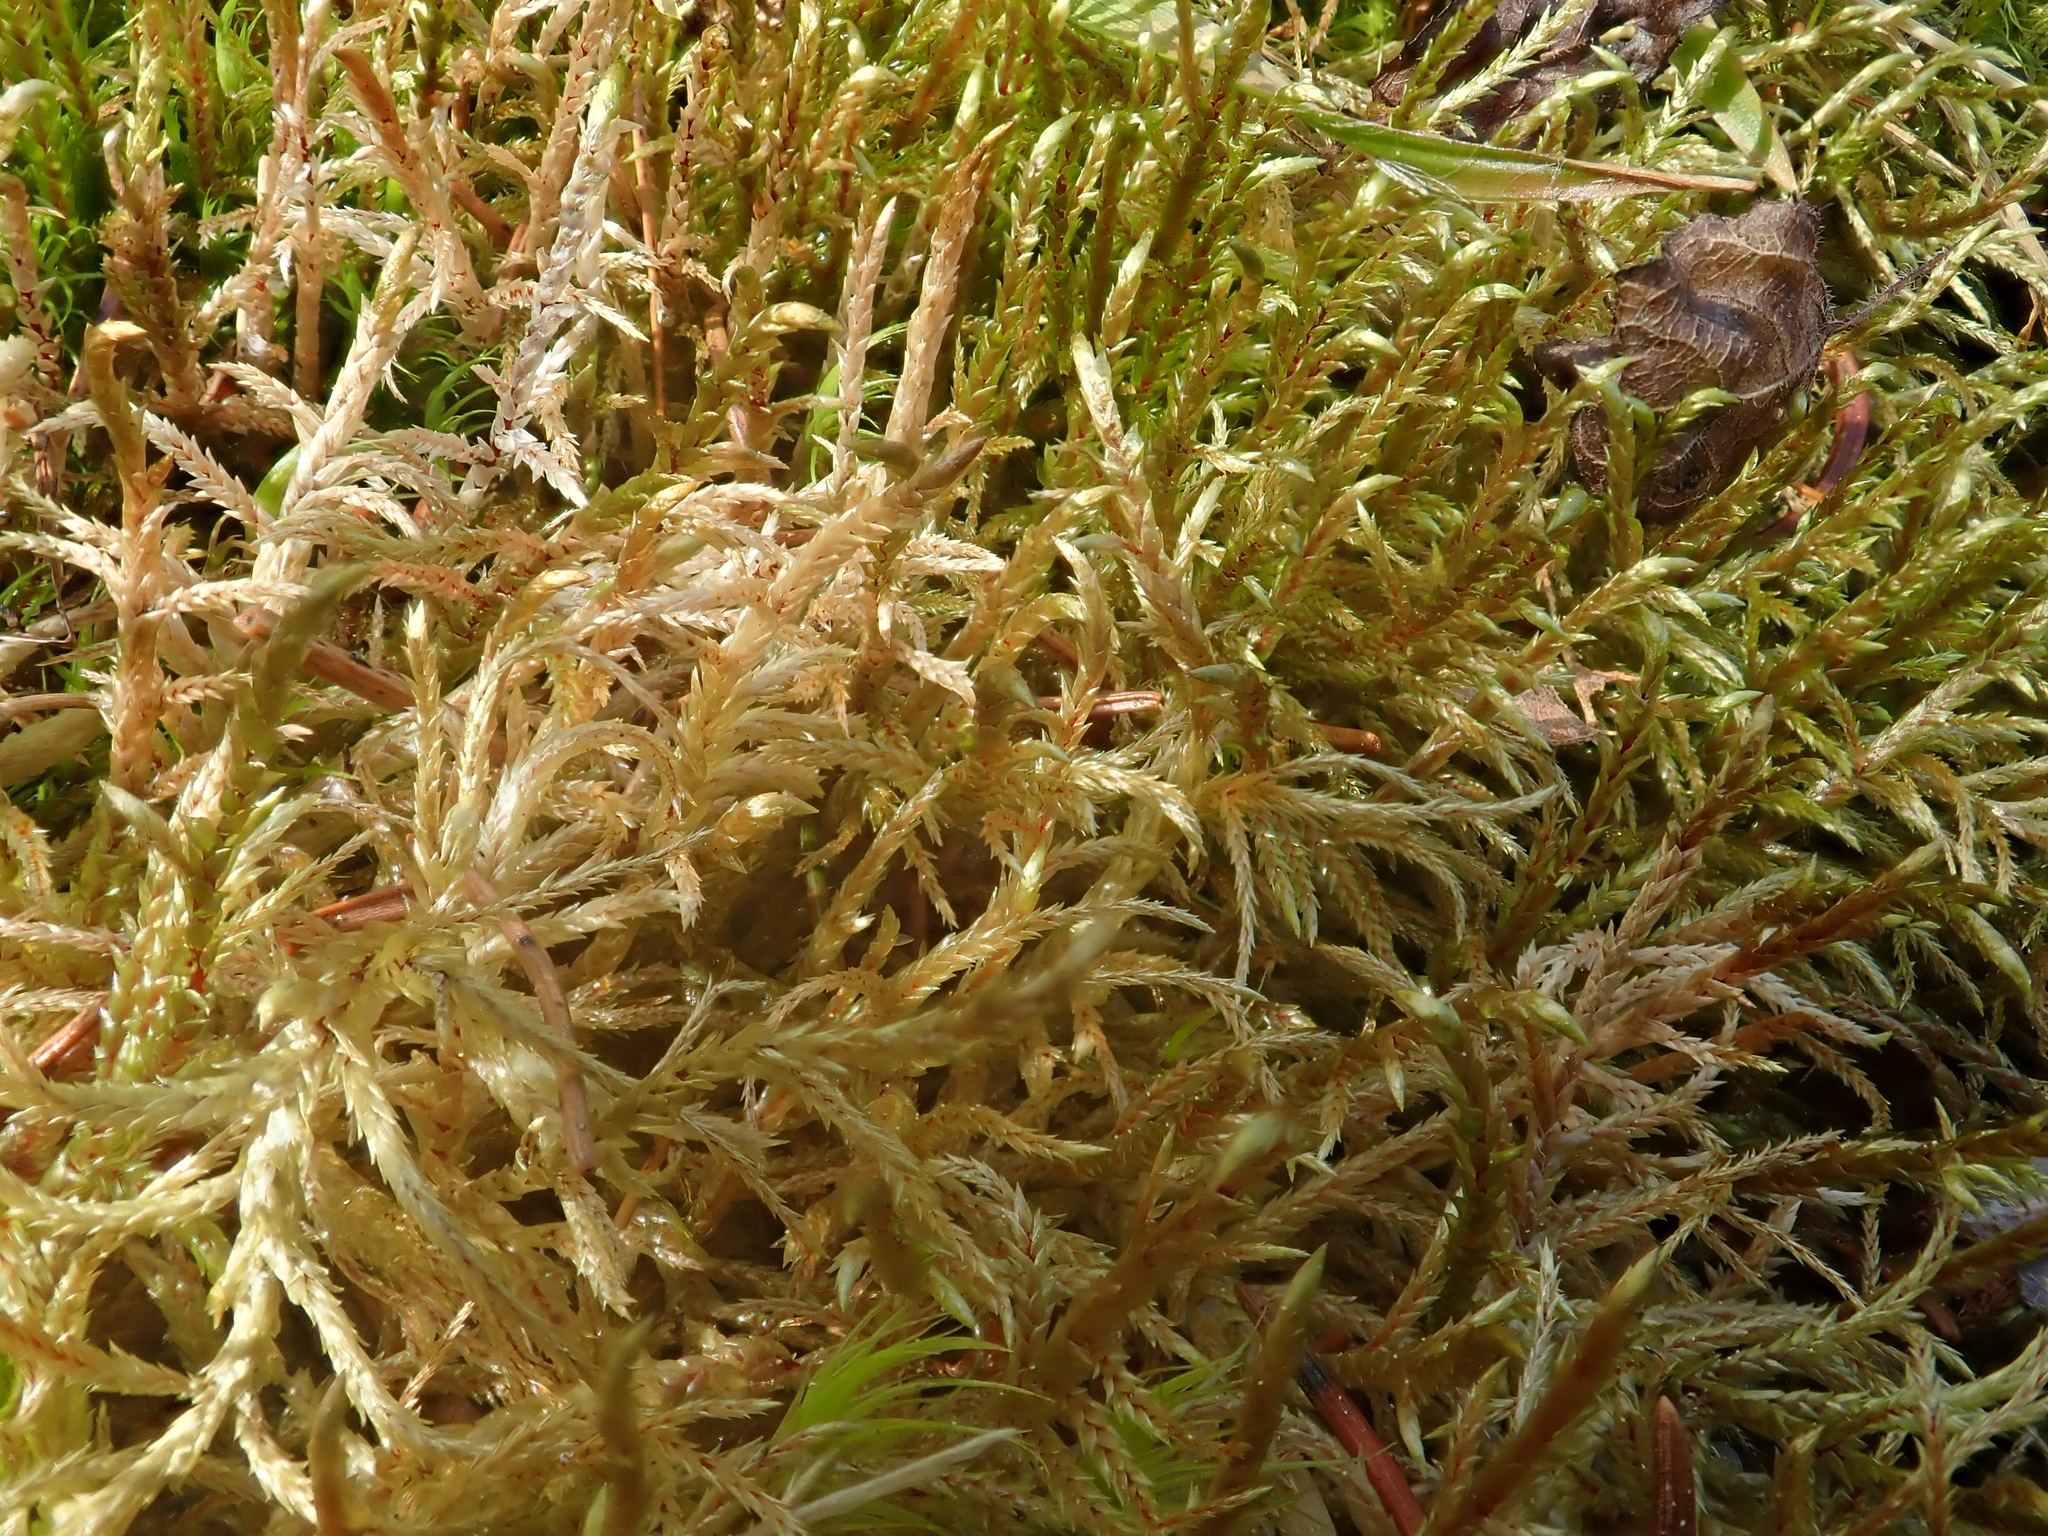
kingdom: Plantae
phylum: Bryophyta
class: Bryopsida
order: Hypnales
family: Hylocomiaceae
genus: Pleurozium
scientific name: Pleurozium schreberi
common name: Red-stemmed feather moss
